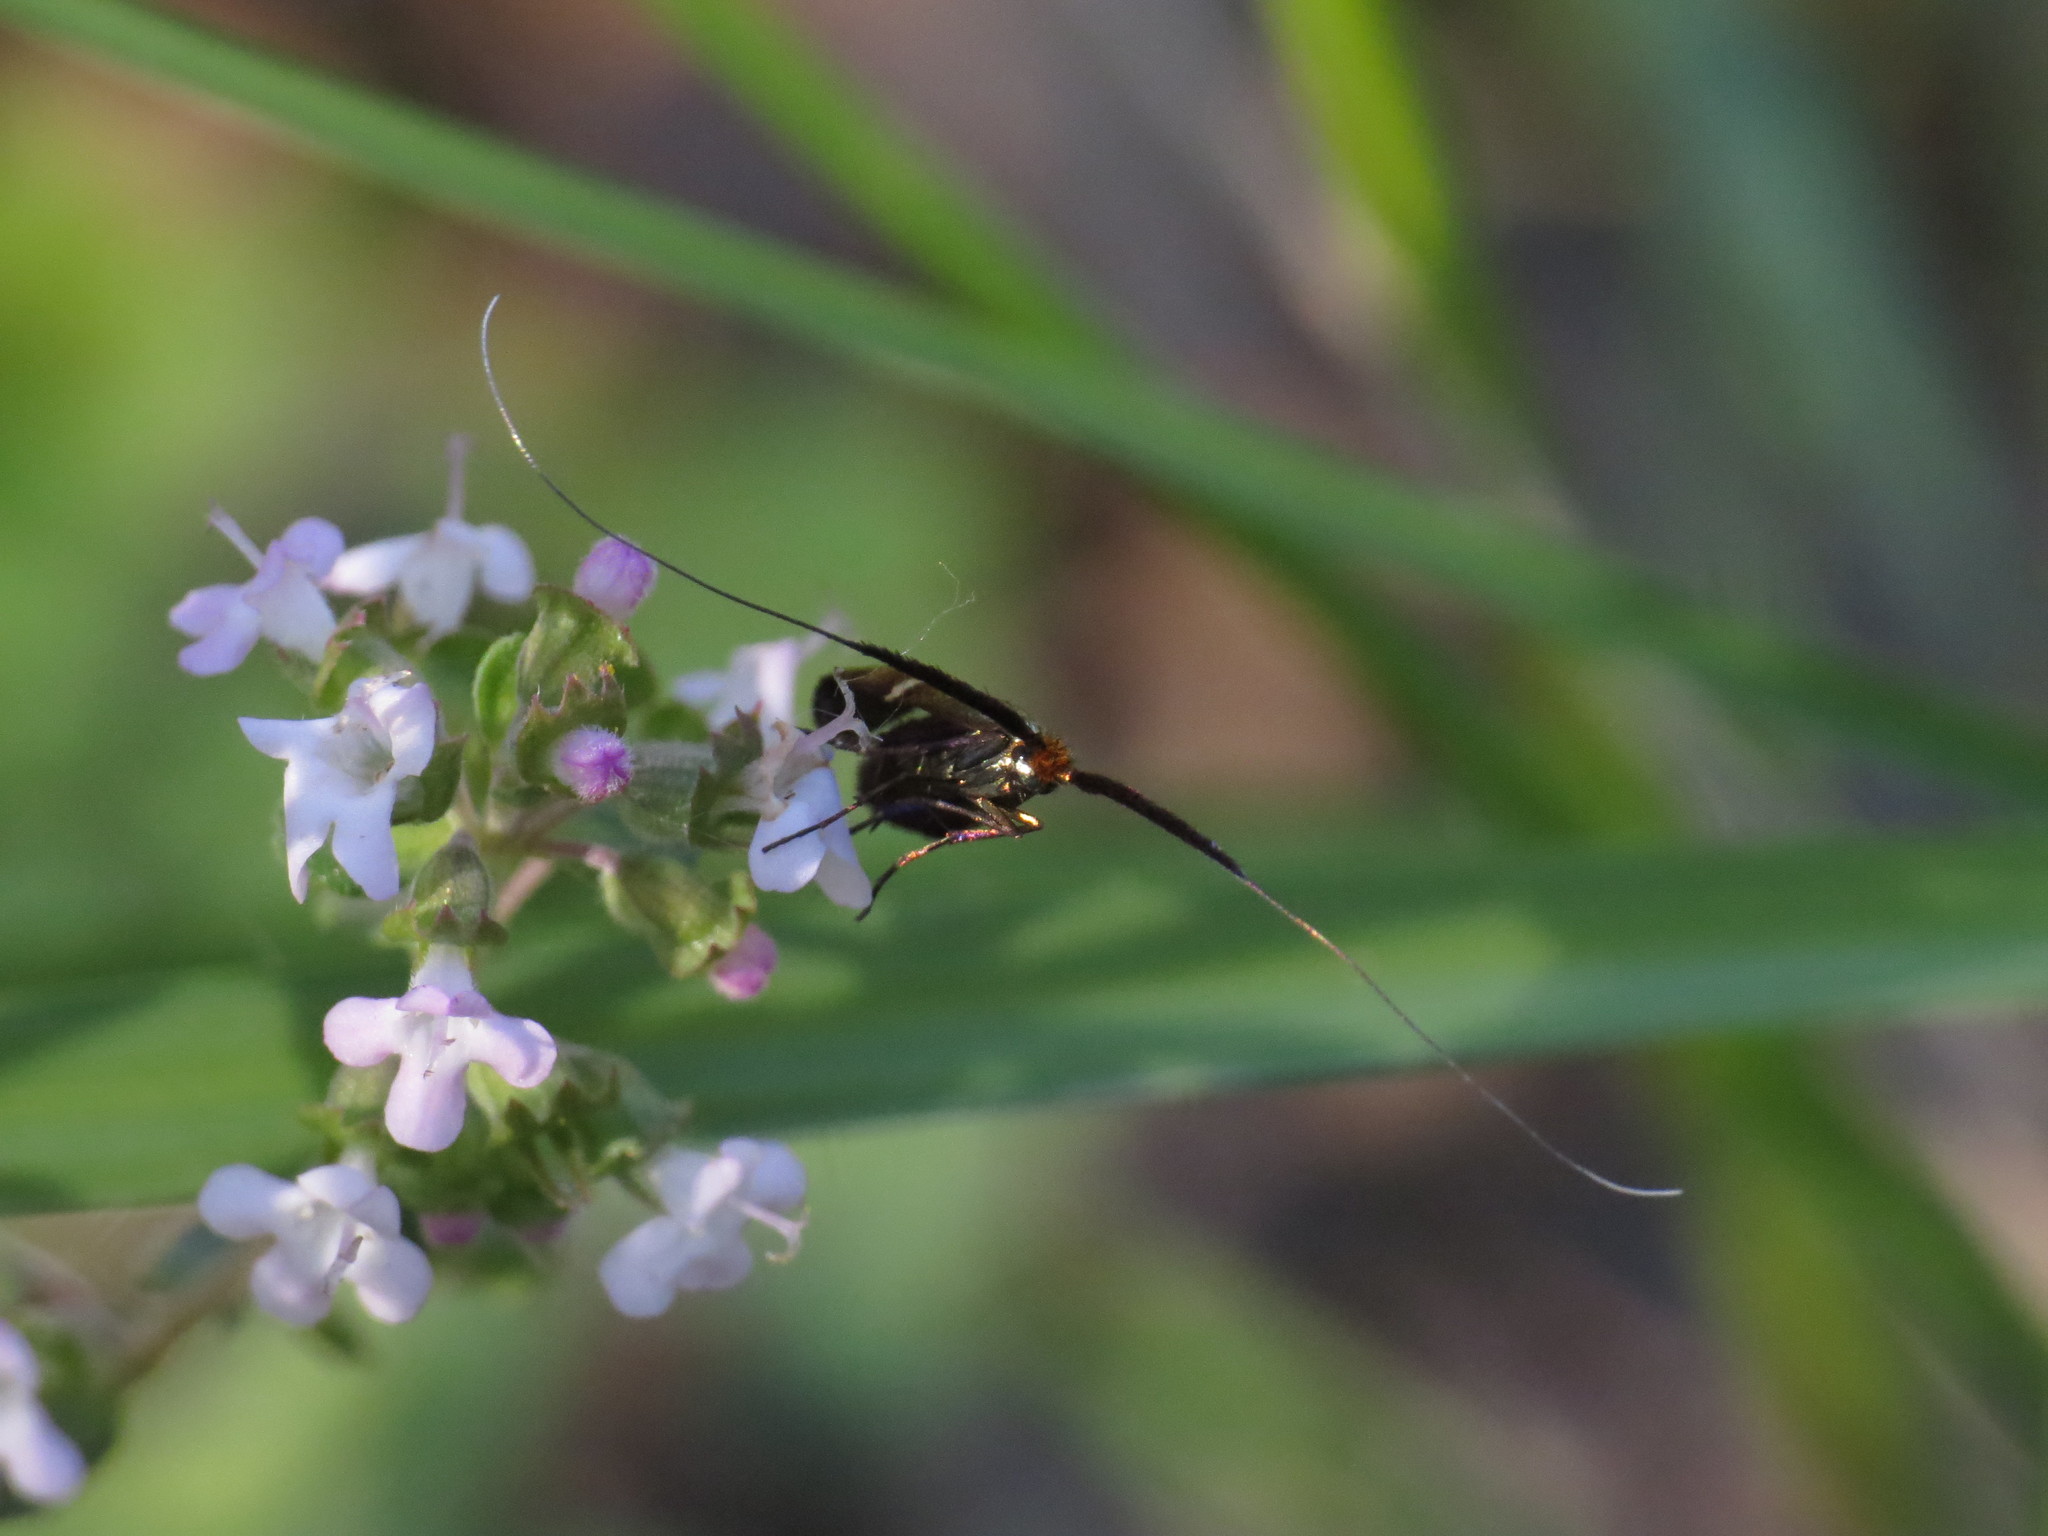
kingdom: Animalia
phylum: Arthropoda
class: Insecta
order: Lepidoptera
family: Adelidae
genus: Adela
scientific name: Adela australis
